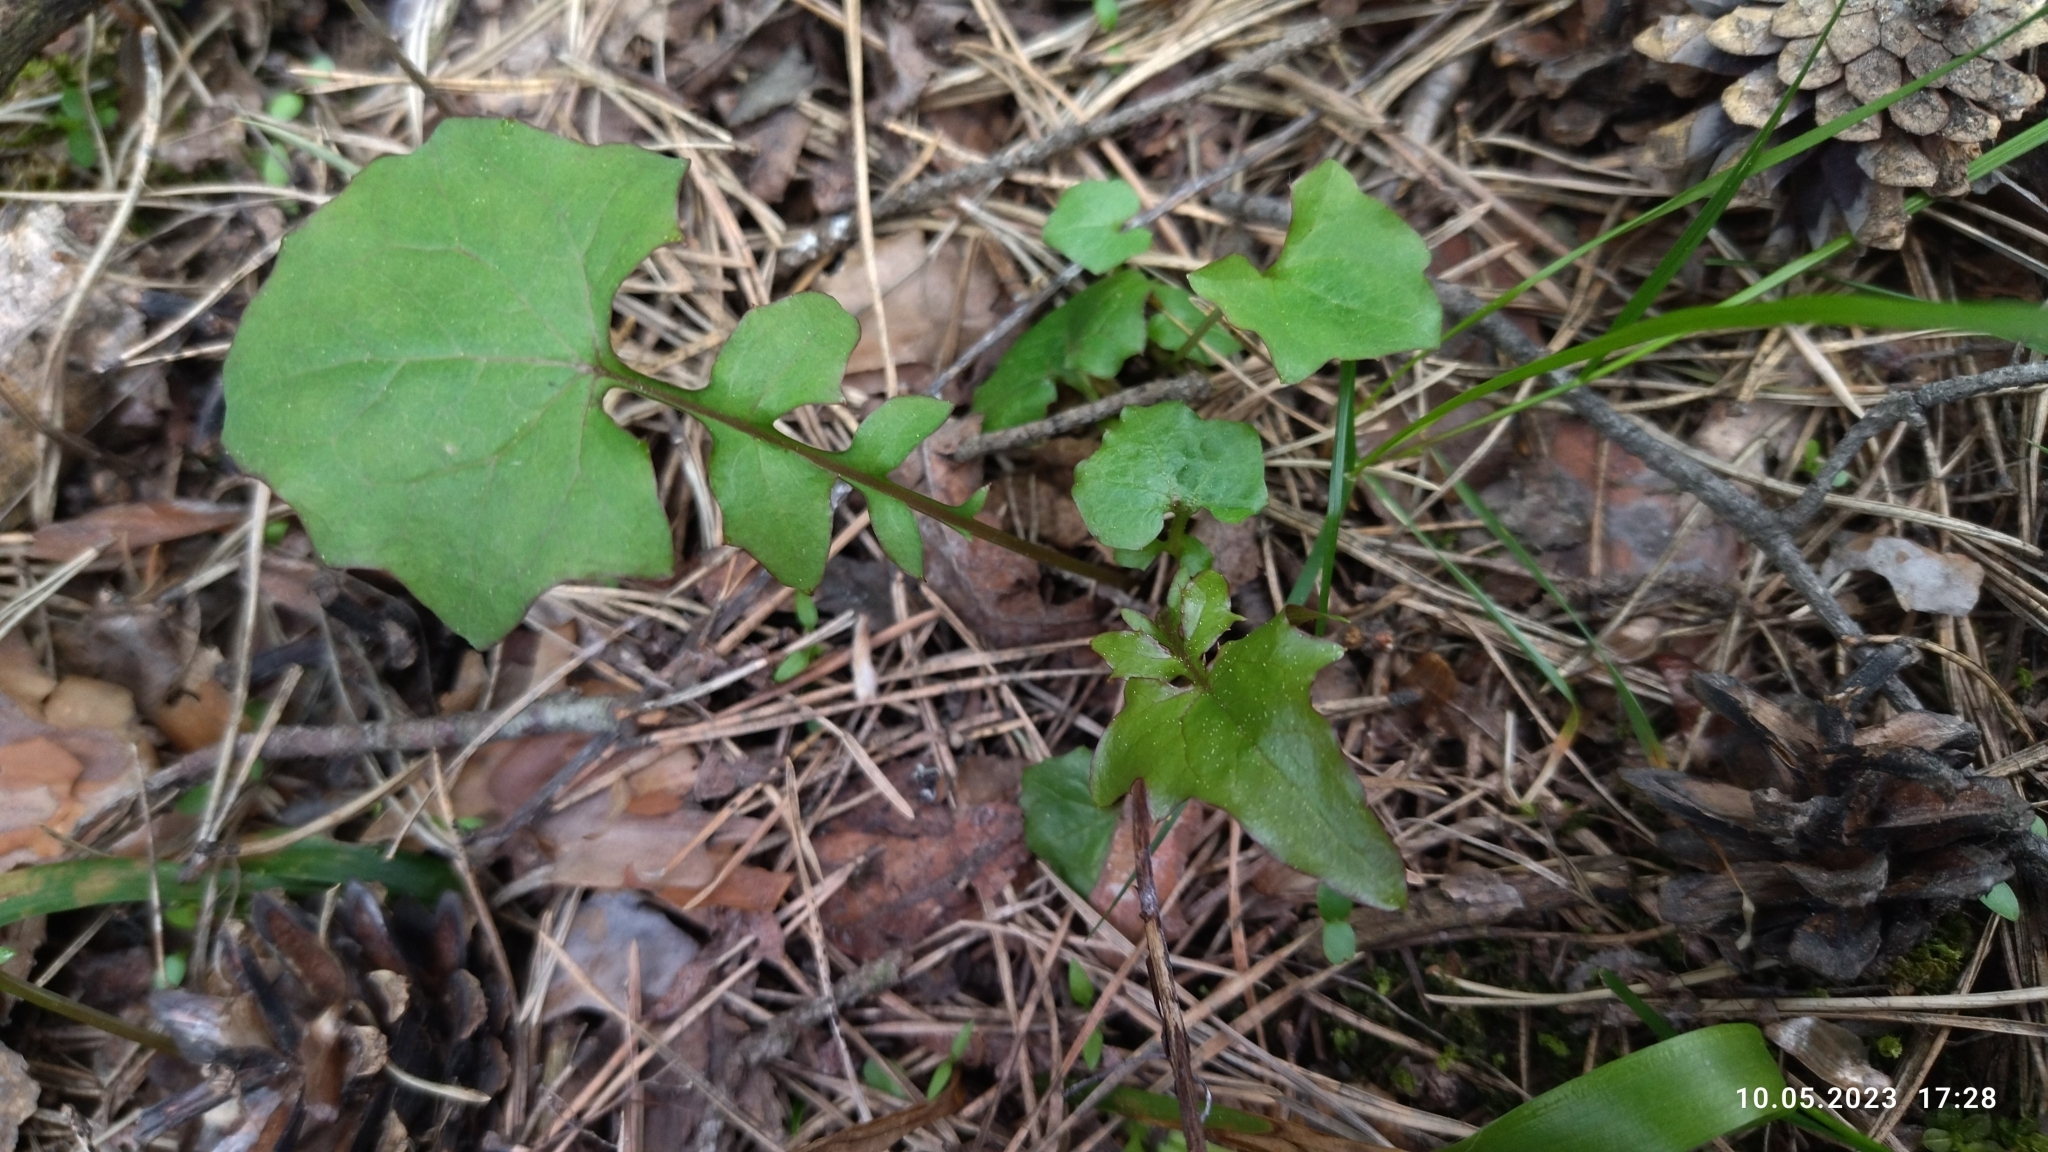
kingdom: Plantae
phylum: Tracheophyta
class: Magnoliopsida
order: Asterales
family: Asteraceae
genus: Mycelis
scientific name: Mycelis muralis
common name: Wall lettuce
